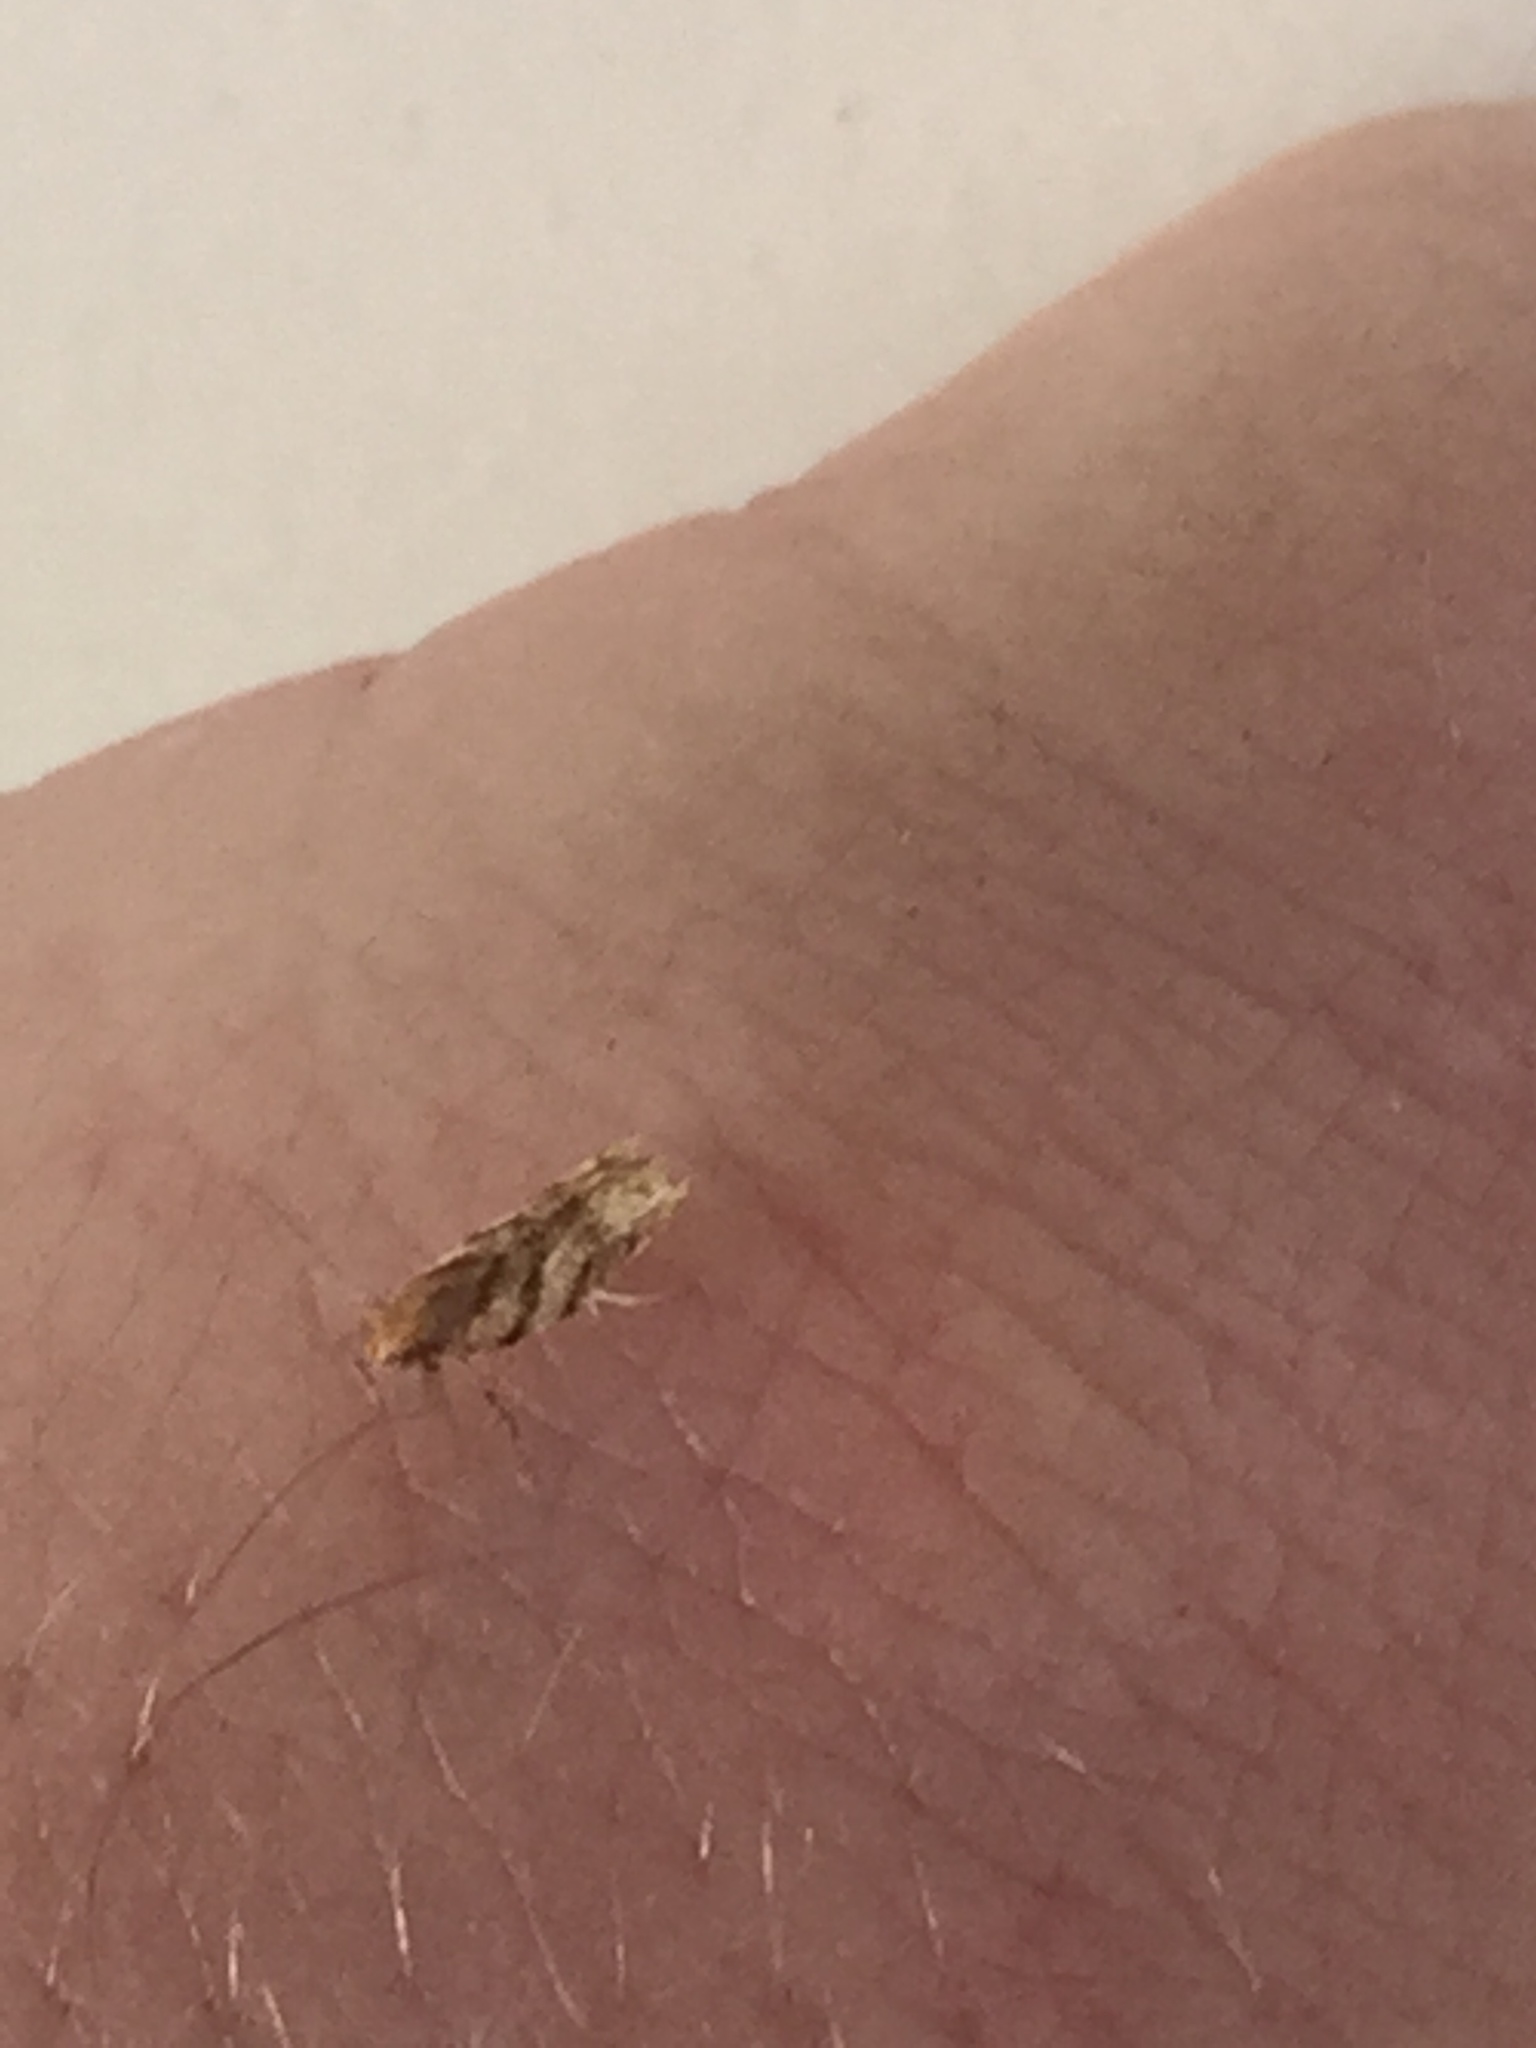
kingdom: Animalia
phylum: Arthropoda
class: Insecta
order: Lepidoptera
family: Glyphipterigidae
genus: Chrysorthenches
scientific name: Chrysorthenches virgata
